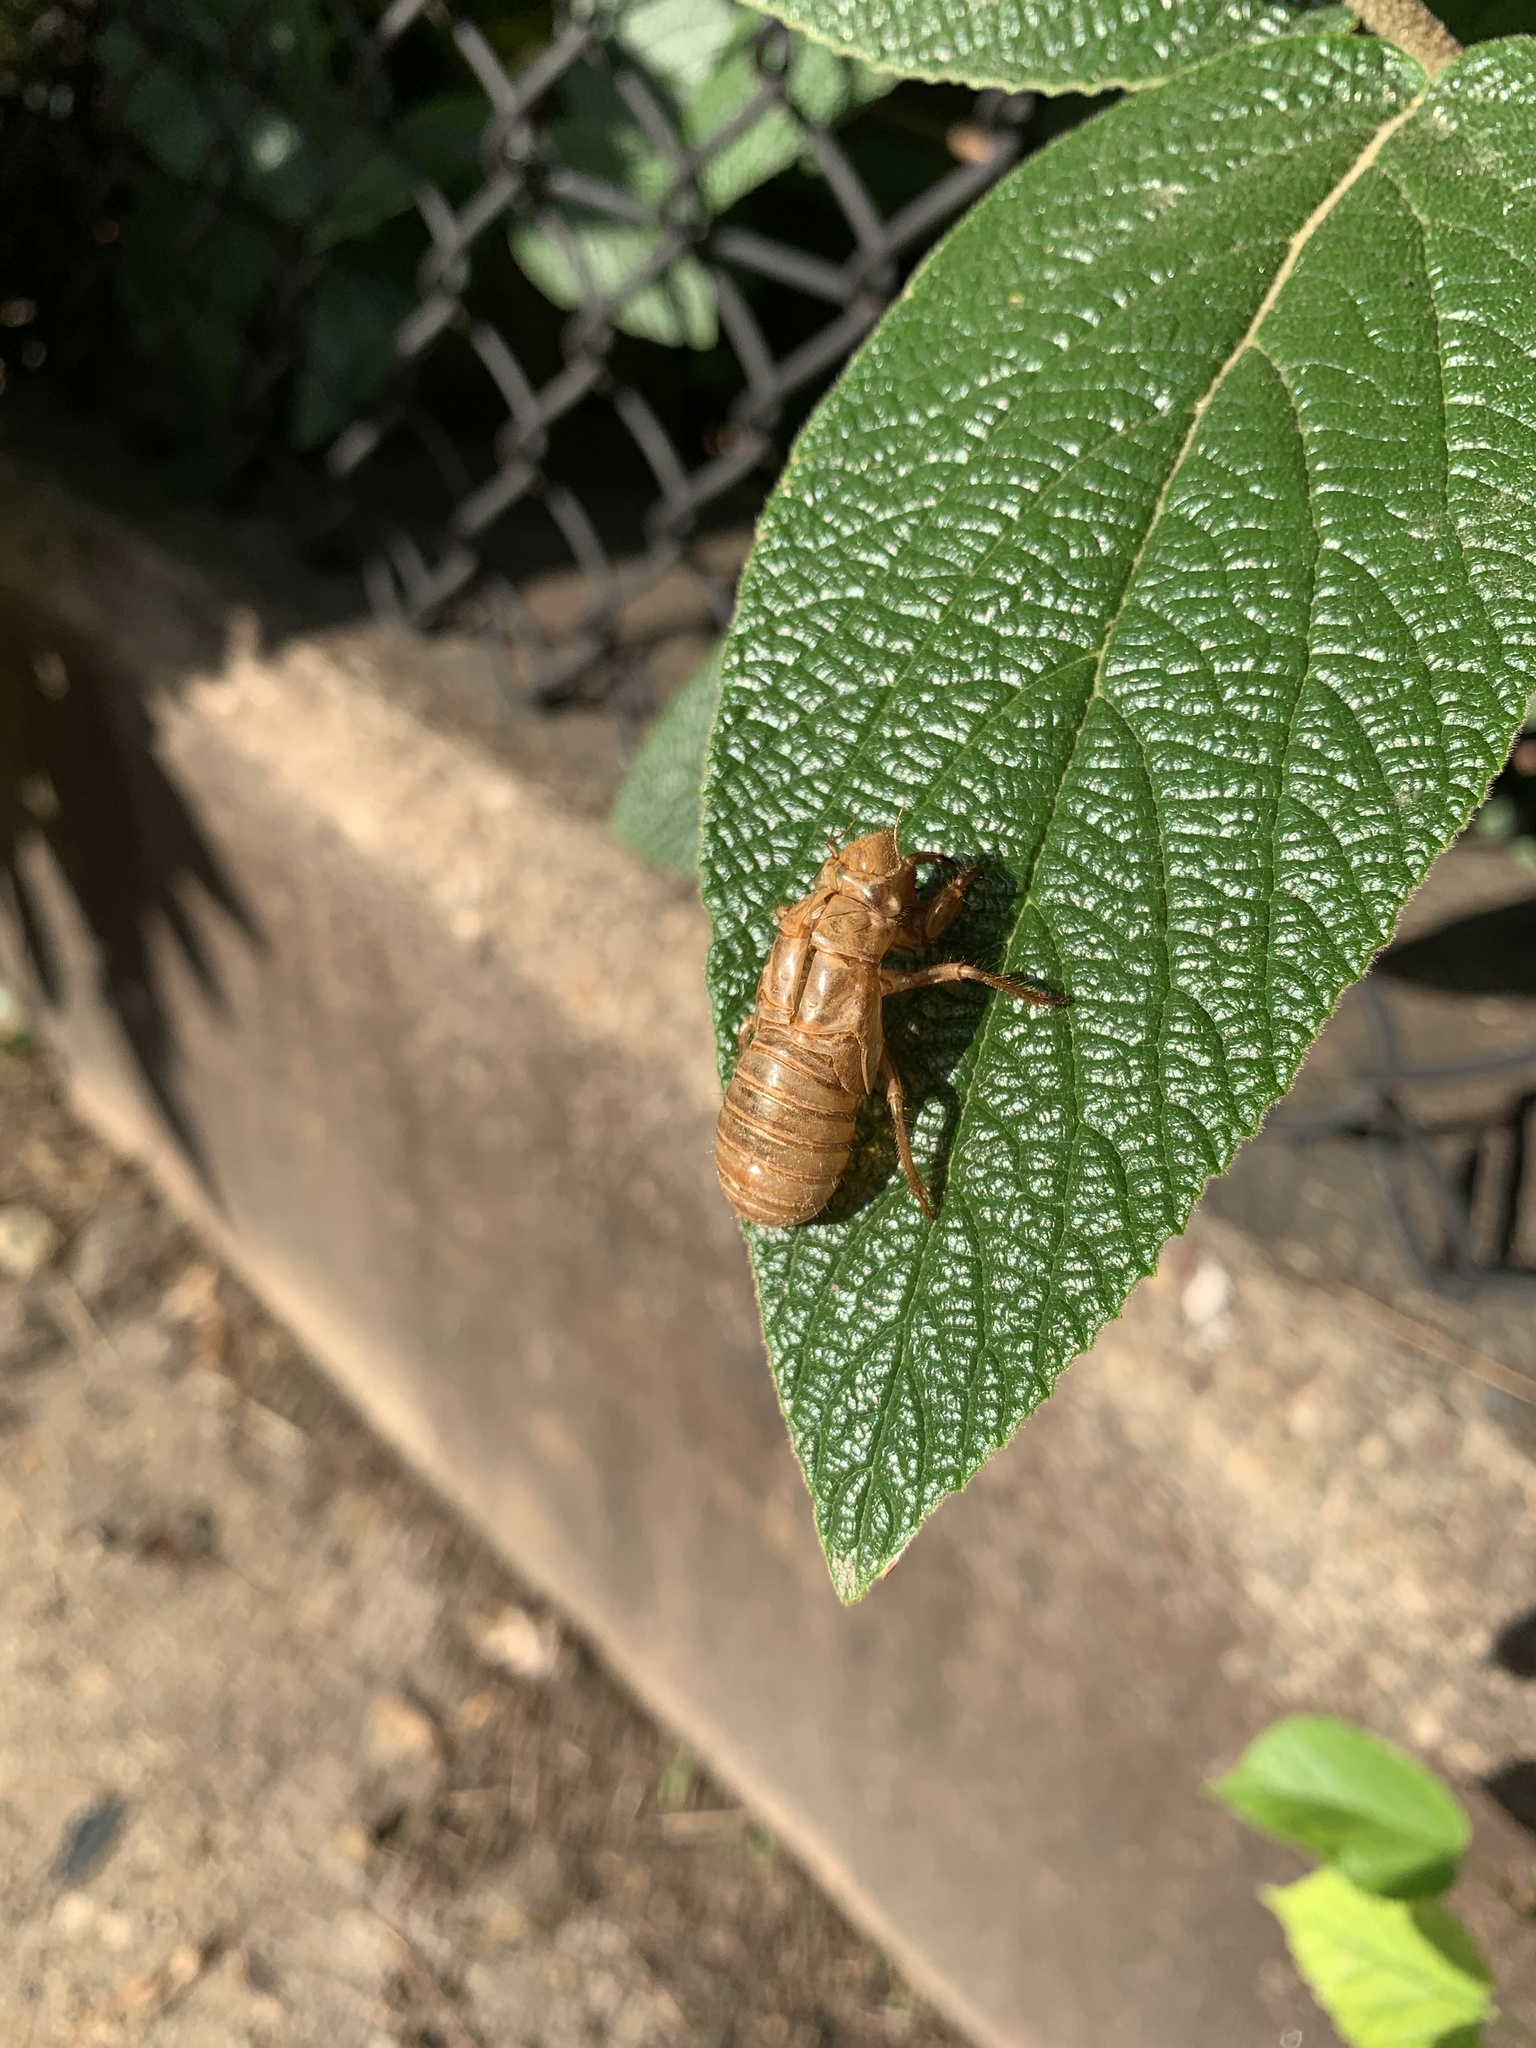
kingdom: Animalia
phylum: Arthropoda
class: Insecta
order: Hemiptera
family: Cicadidae
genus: Magicicada
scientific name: Magicicada
